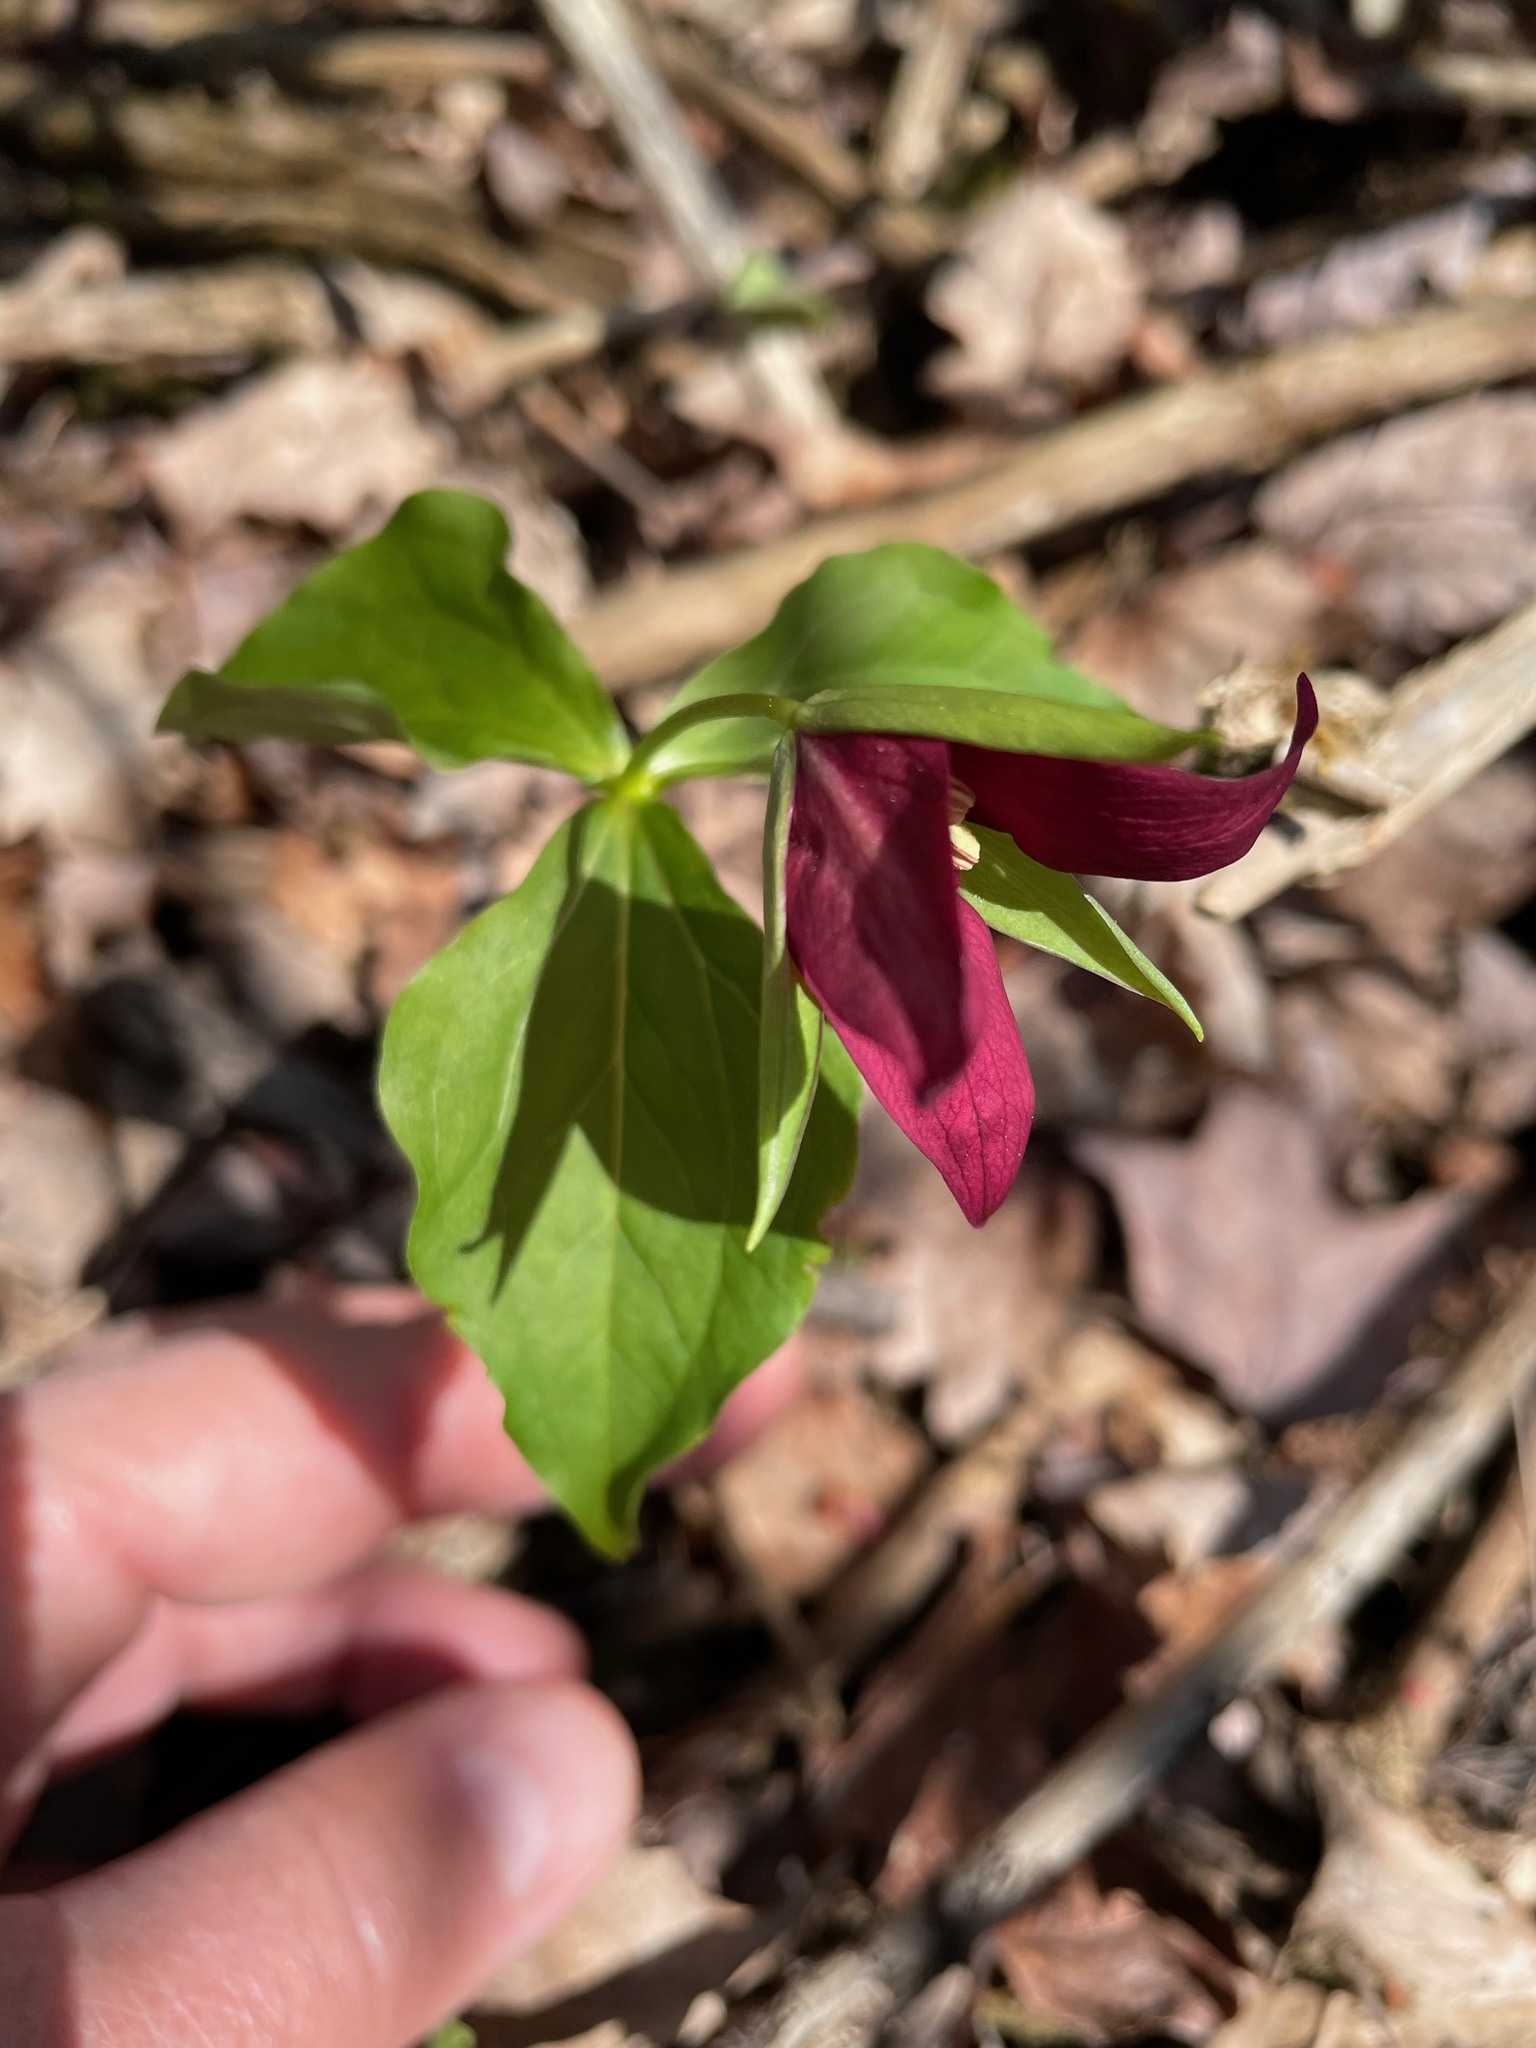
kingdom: Plantae
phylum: Tracheophyta
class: Liliopsida
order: Liliales
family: Melanthiaceae
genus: Trillium
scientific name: Trillium erectum
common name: Purple trillium
